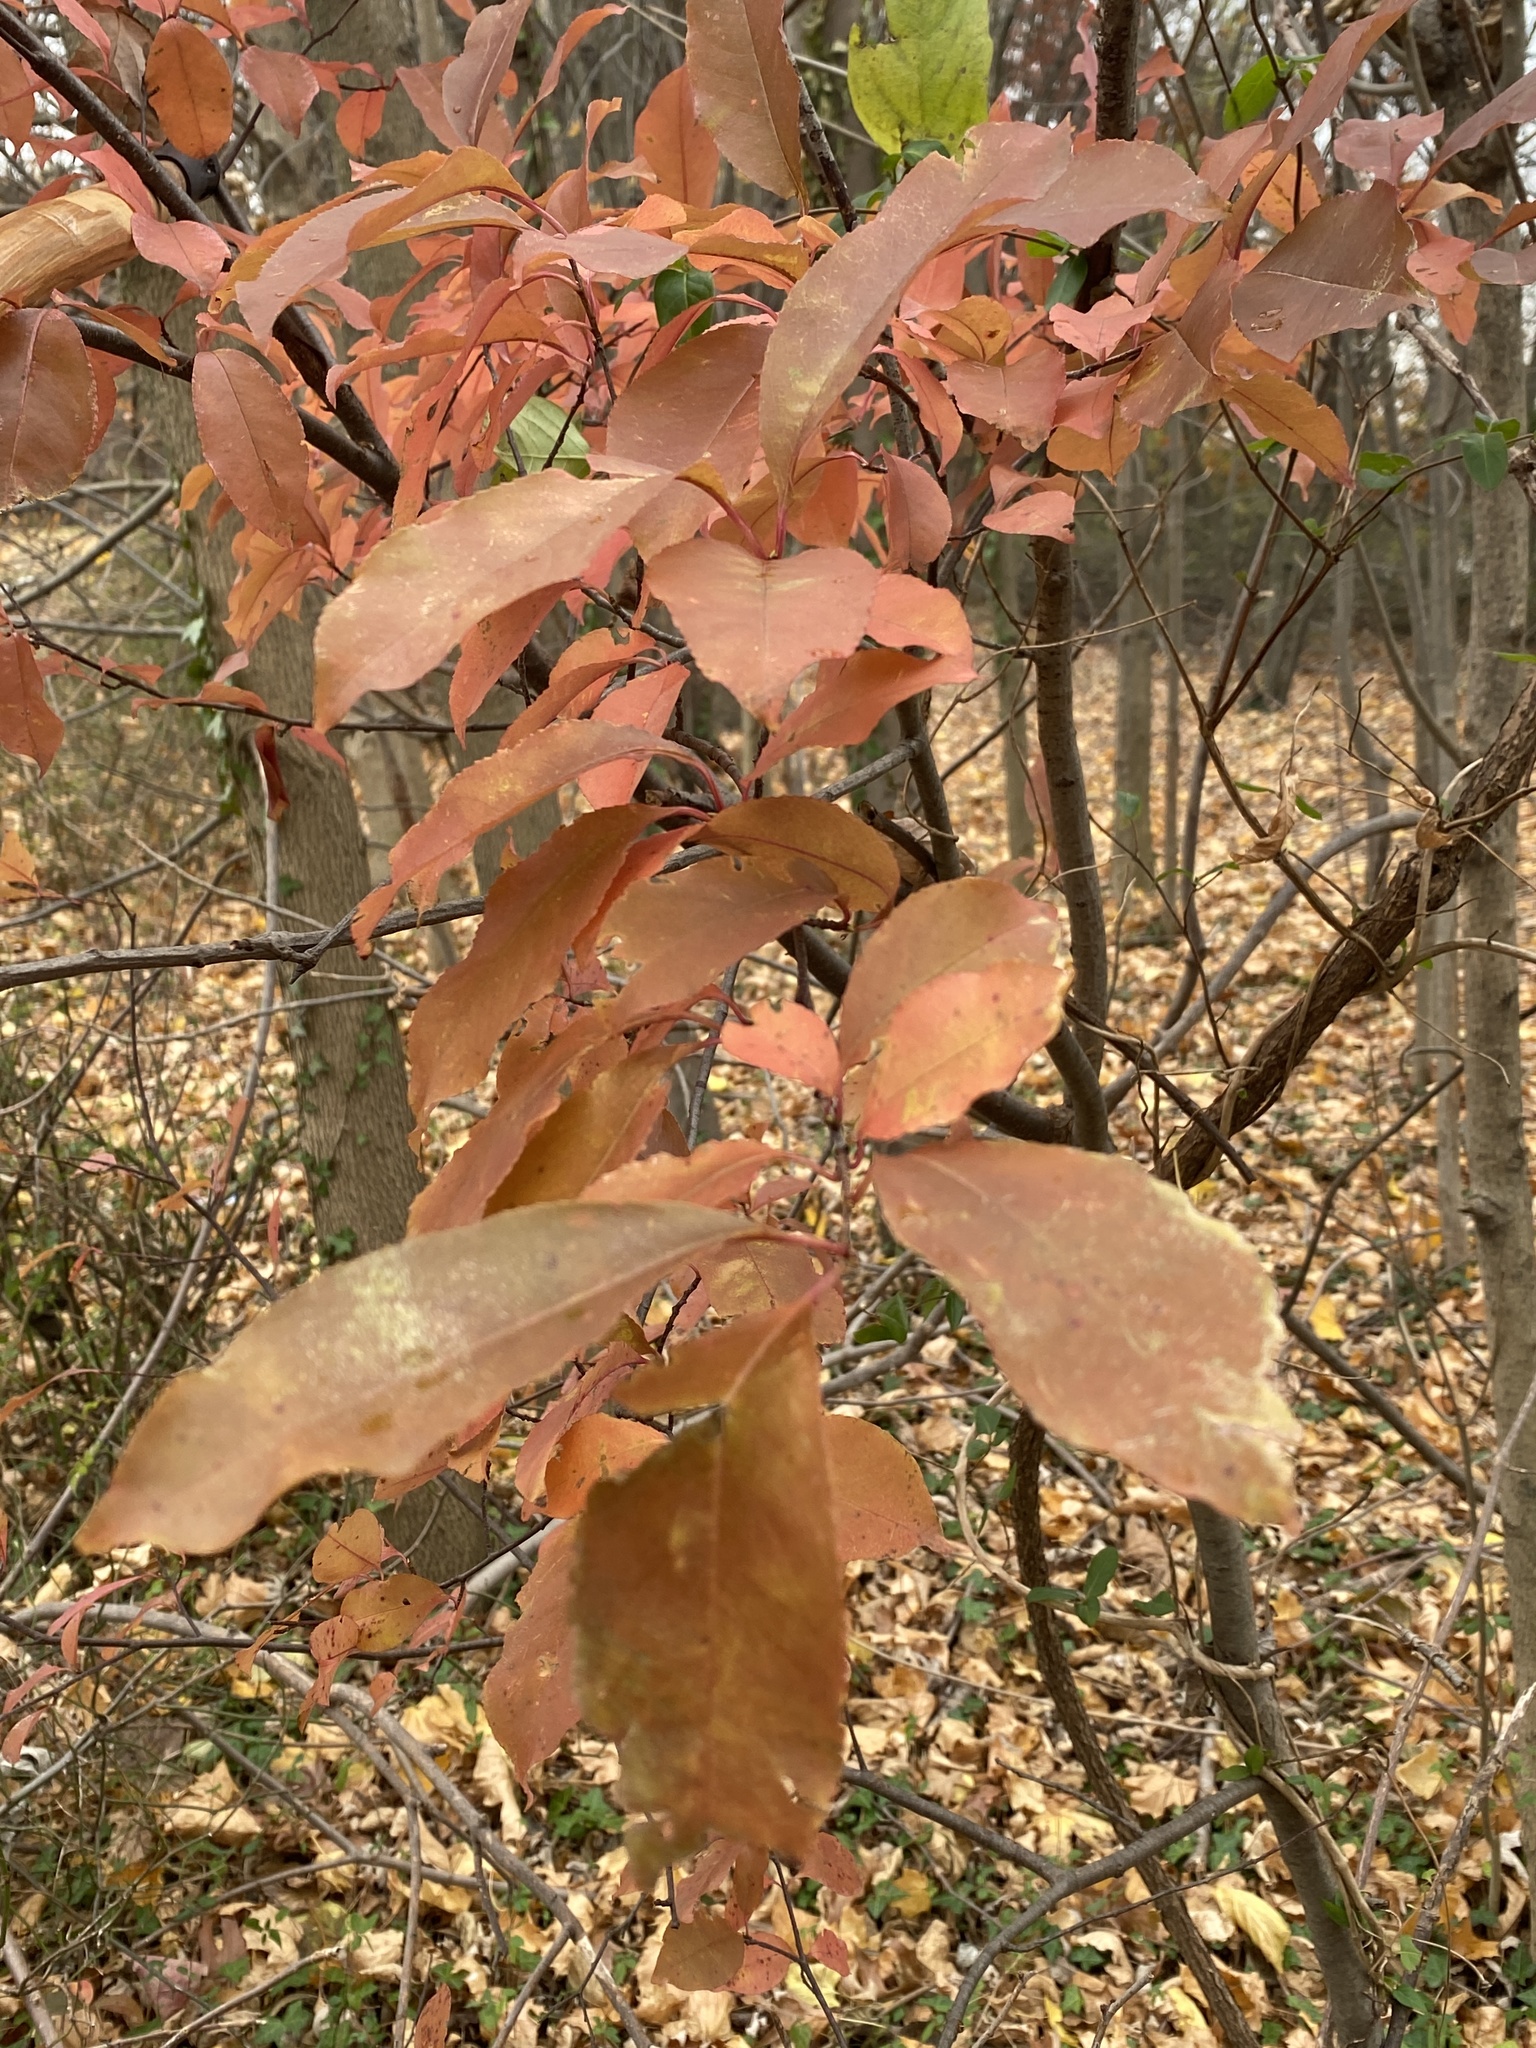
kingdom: Plantae
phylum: Tracheophyta
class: Magnoliopsida
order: Rosales
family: Rosaceae
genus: Prunus
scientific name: Prunus serotina
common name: Black cherry
